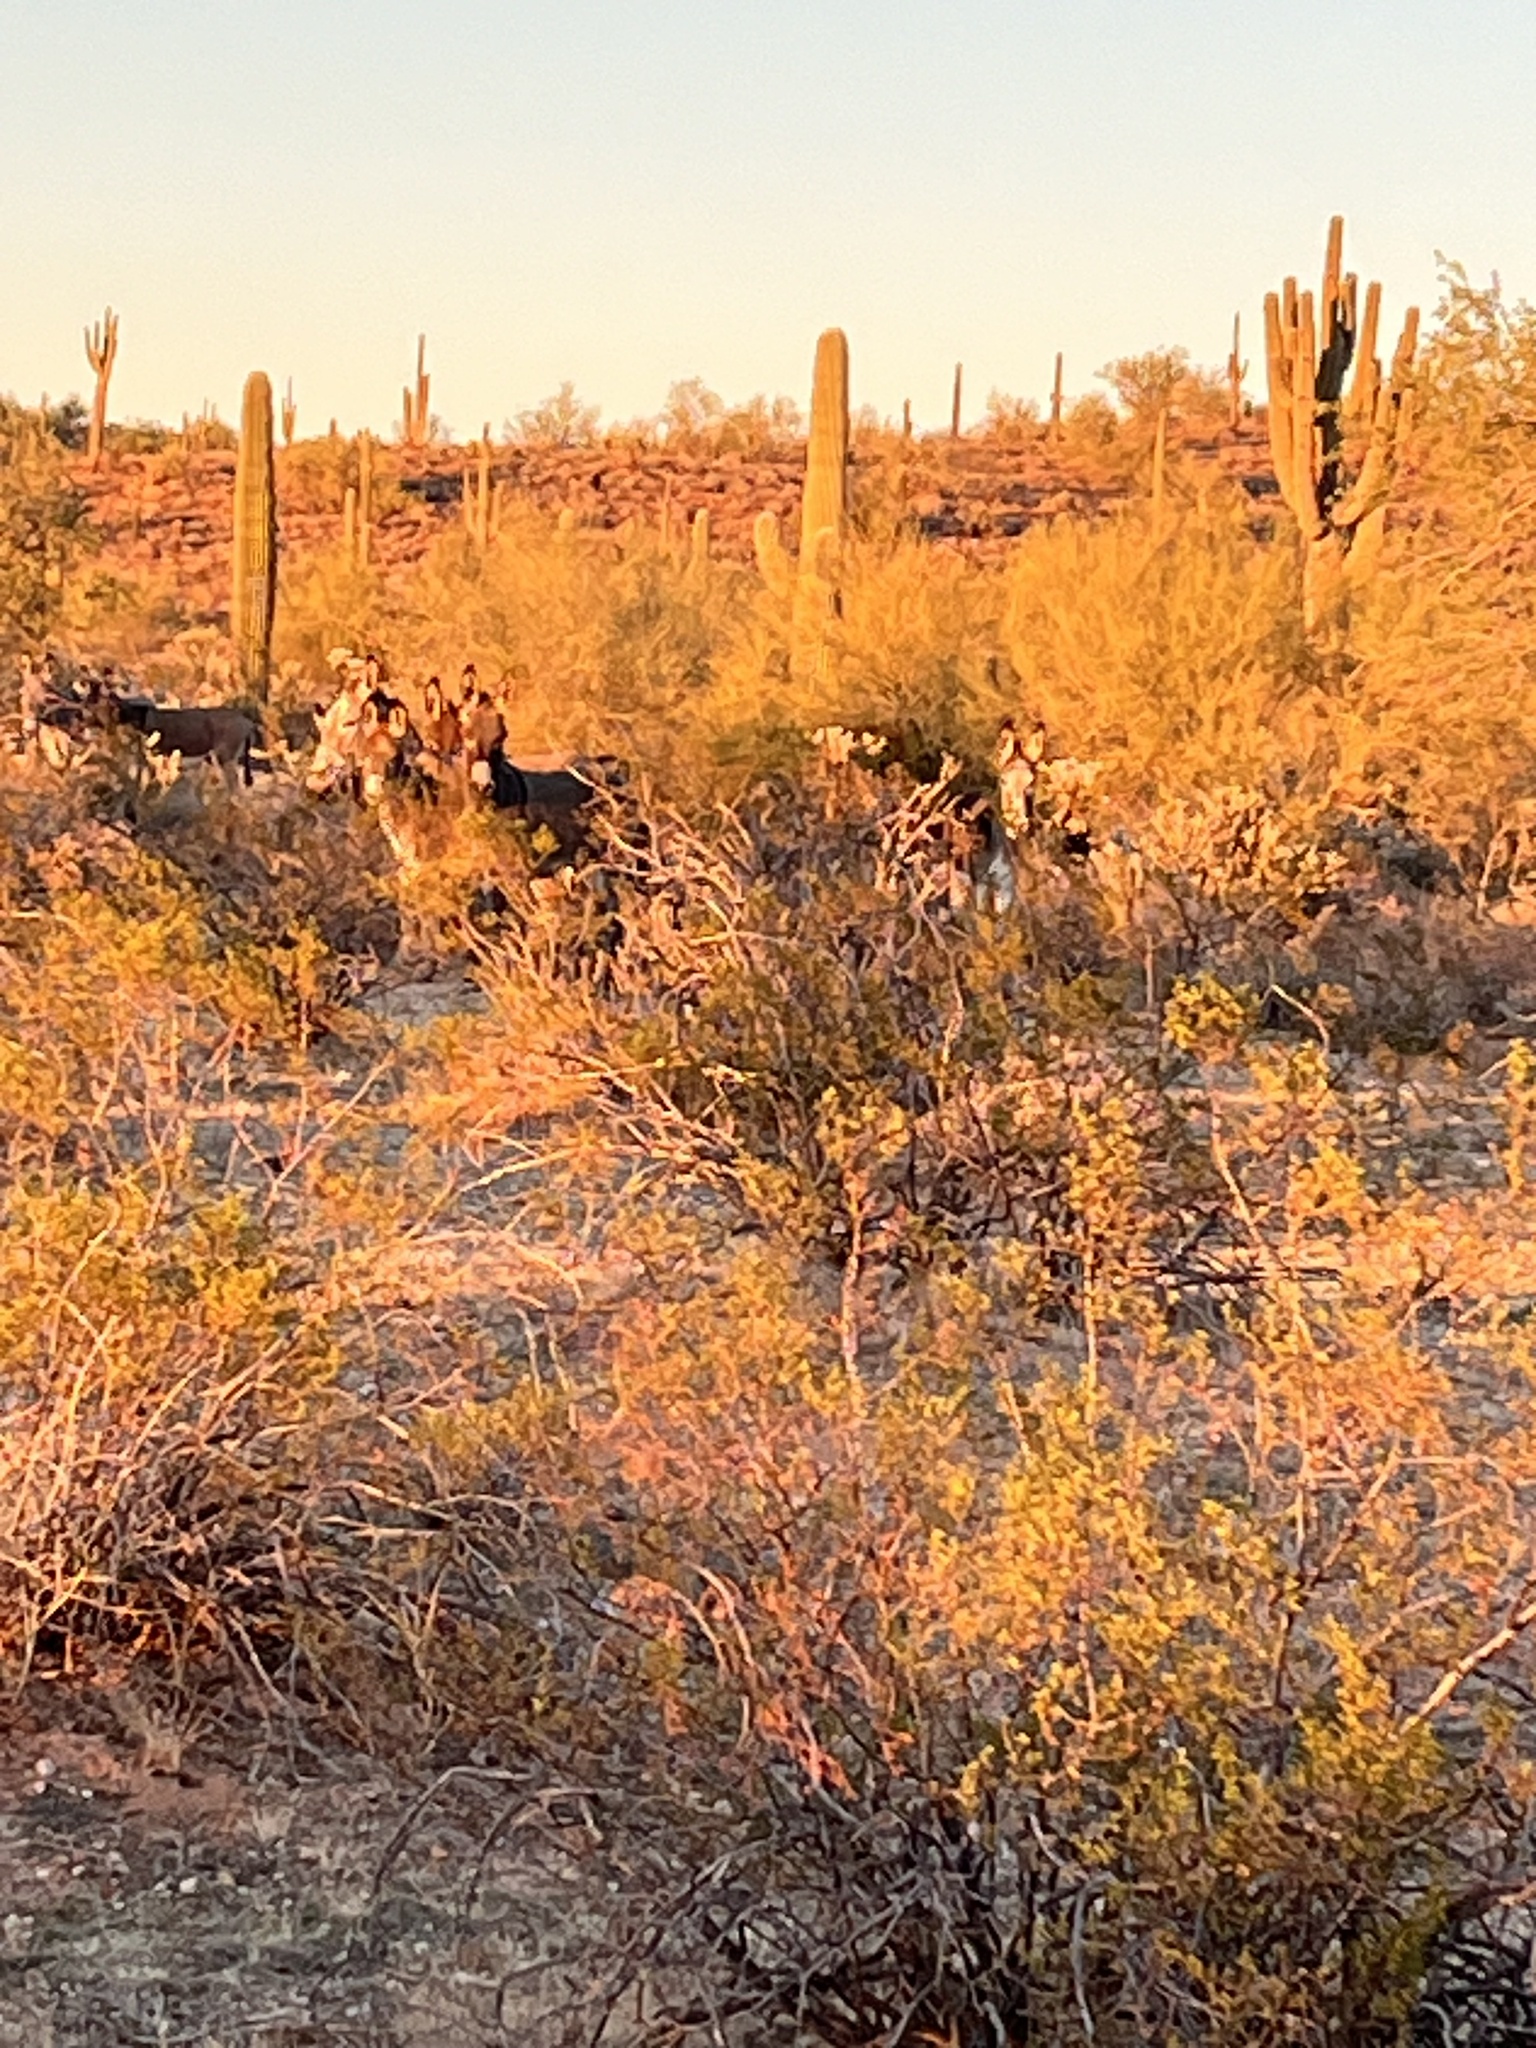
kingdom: Animalia
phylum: Chordata
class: Mammalia
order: Perissodactyla
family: Equidae
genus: Equus
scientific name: Equus asinus
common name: Ass
